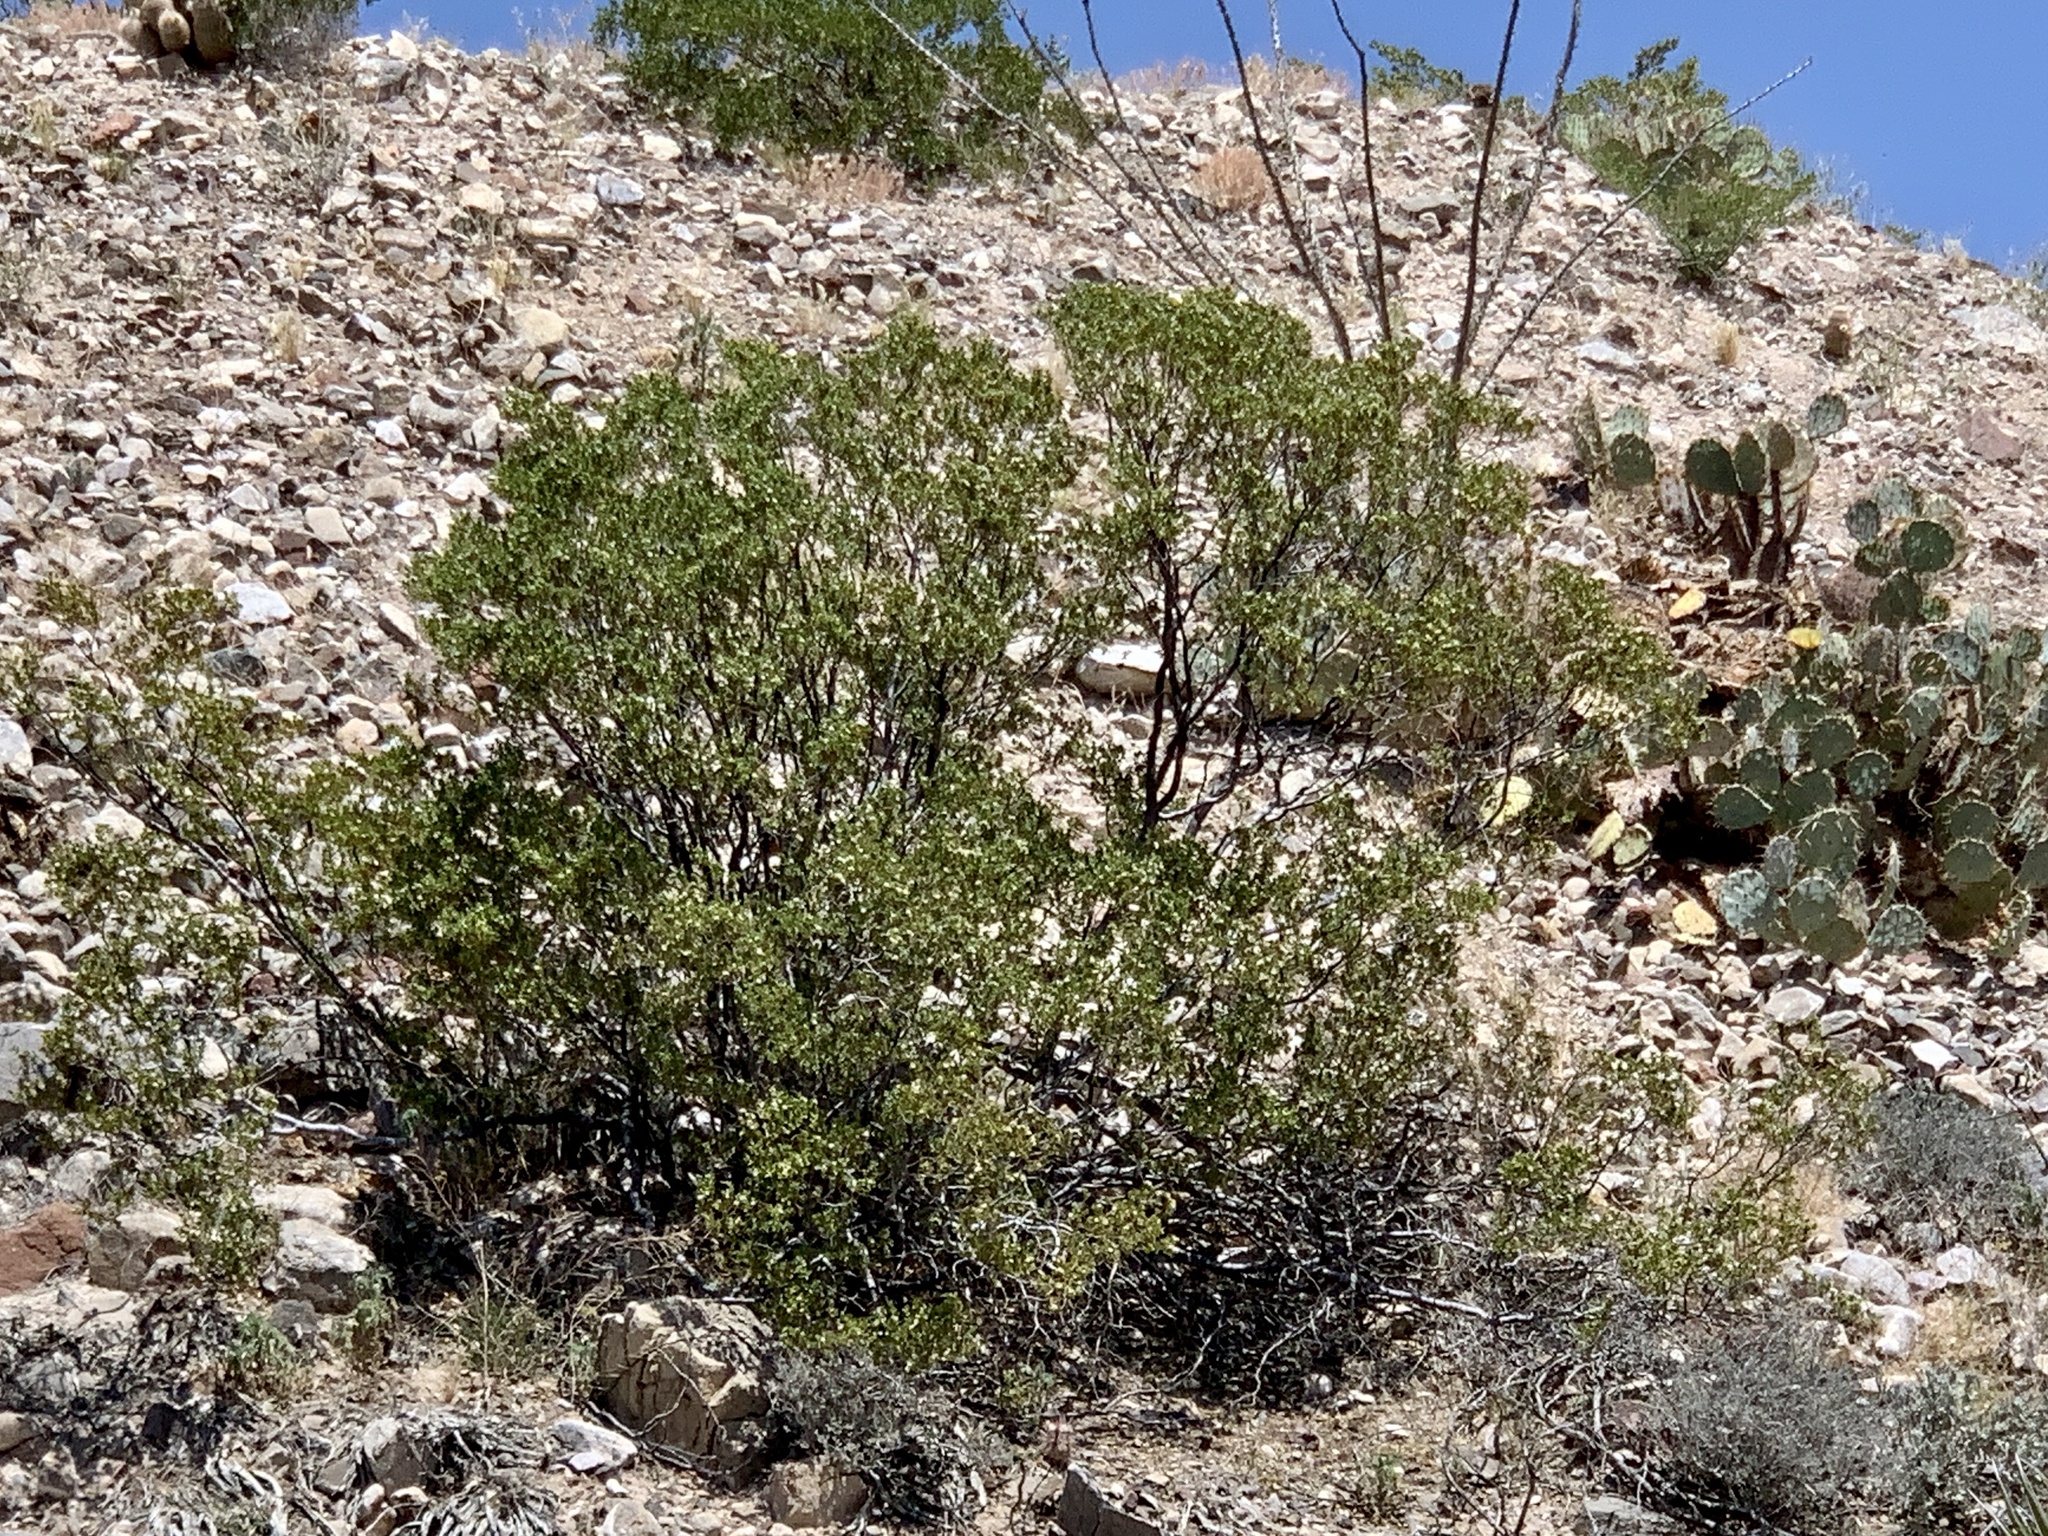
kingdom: Plantae
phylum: Tracheophyta
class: Magnoliopsida
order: Zygophyllales
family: Zygophyllaceae
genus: Larrea
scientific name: Larrea tridentata
